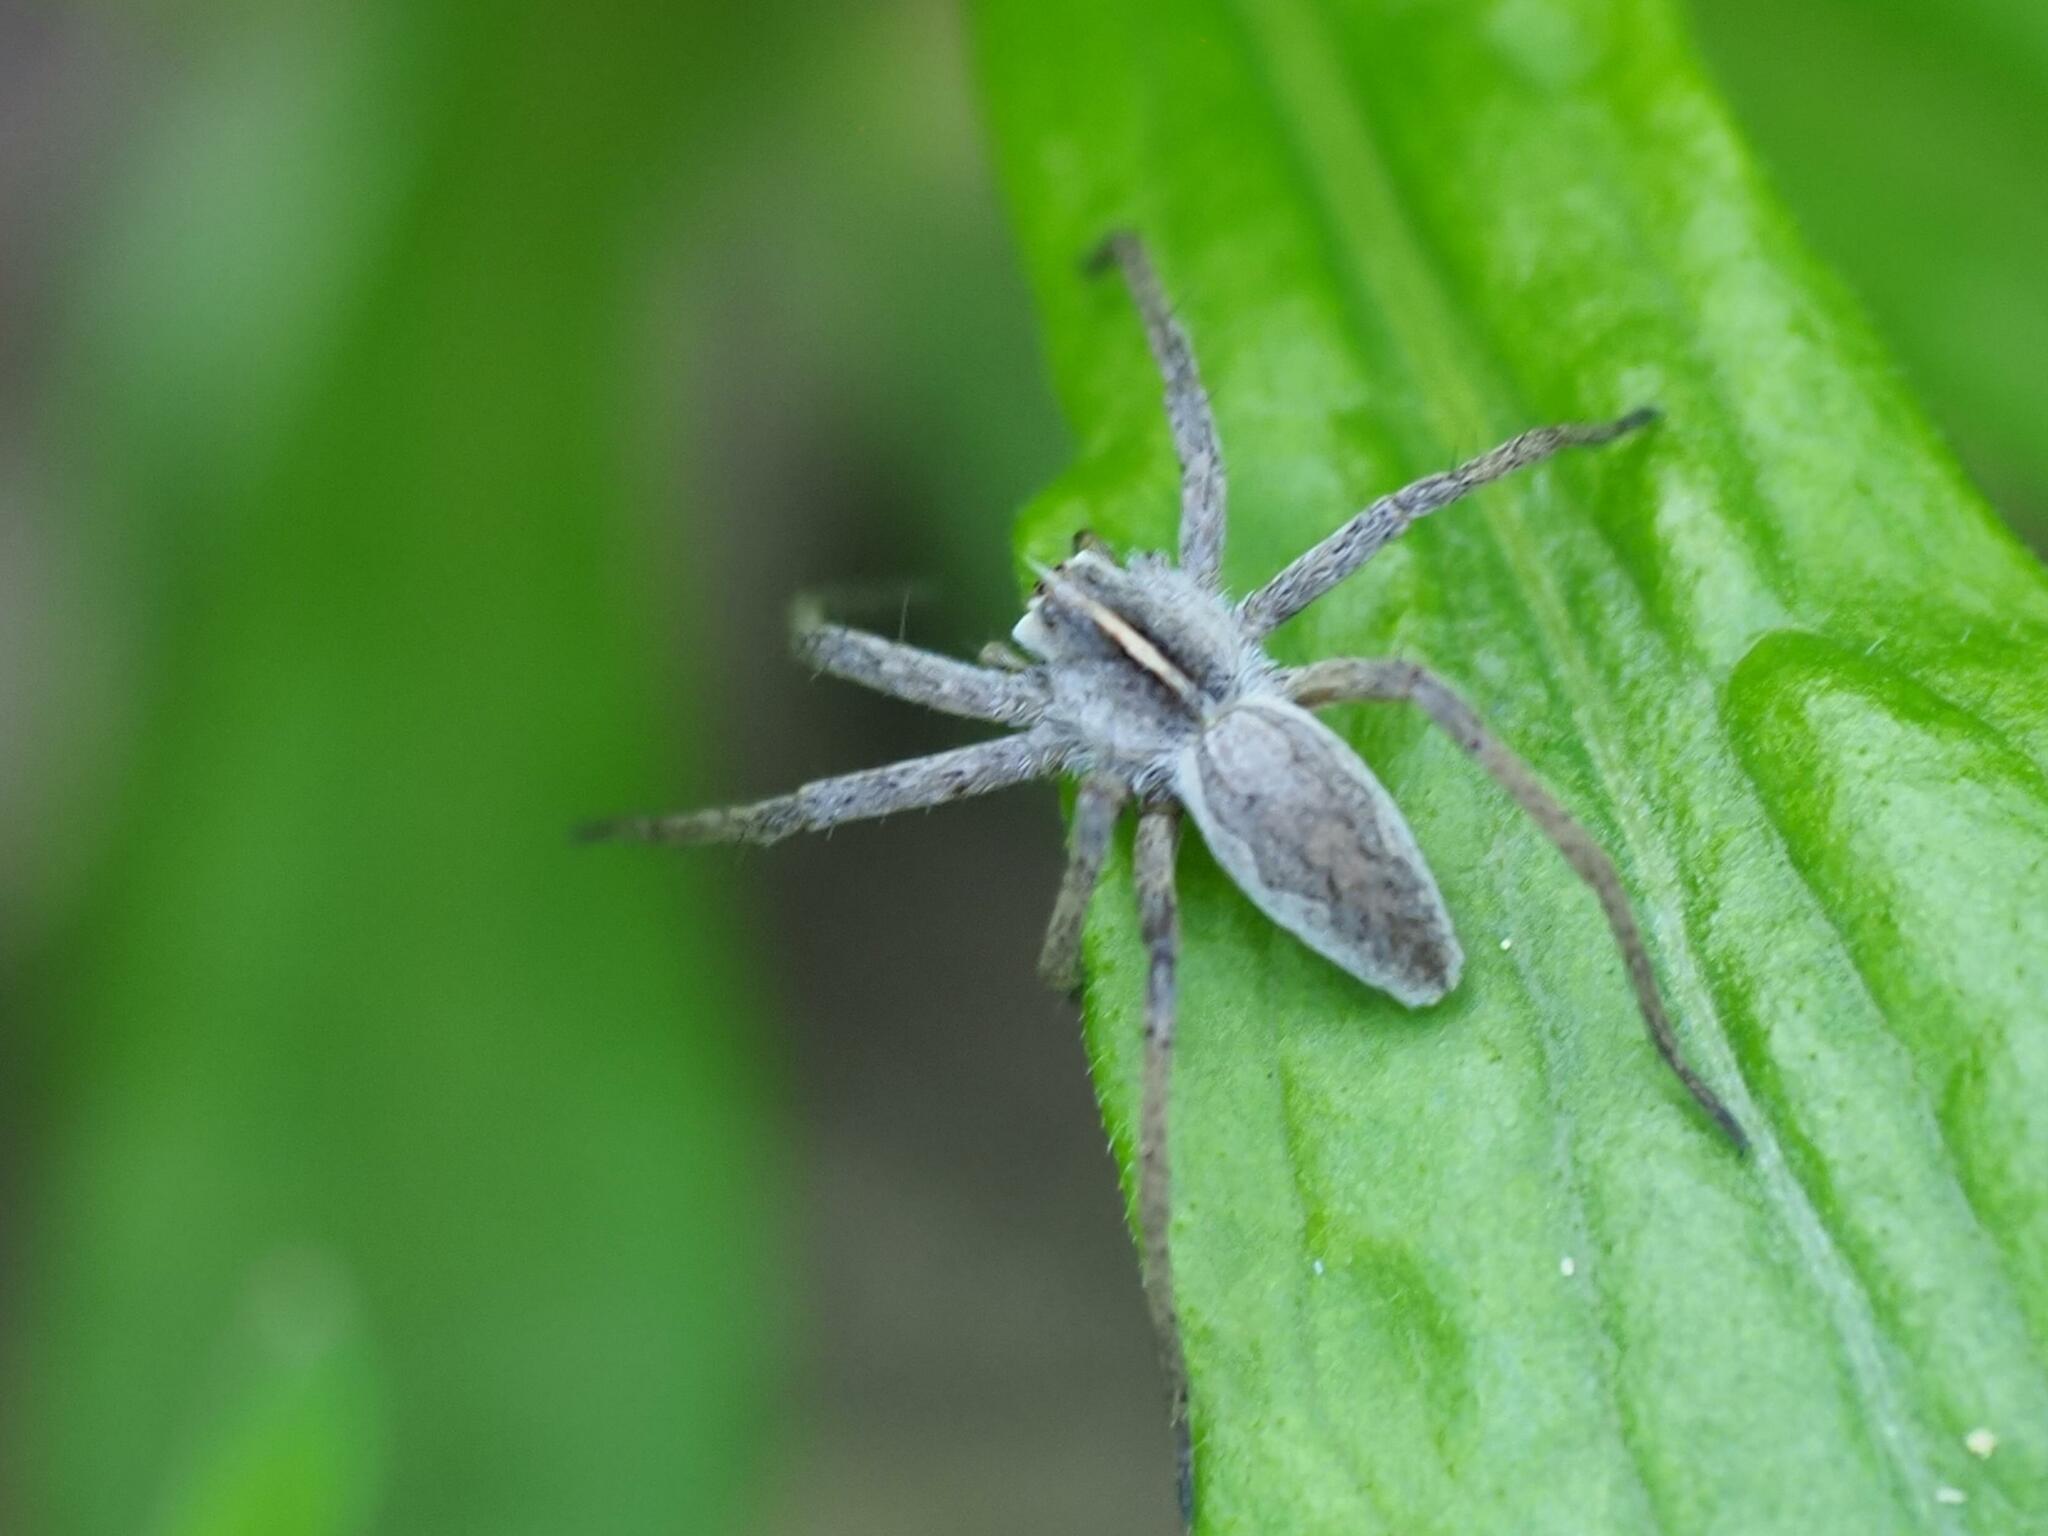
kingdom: Animalia
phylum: Arthropoda
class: Arachnida
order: Araneae
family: Pisauridae
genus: Pisaura
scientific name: Pisaura mirabilis
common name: Tent spider
